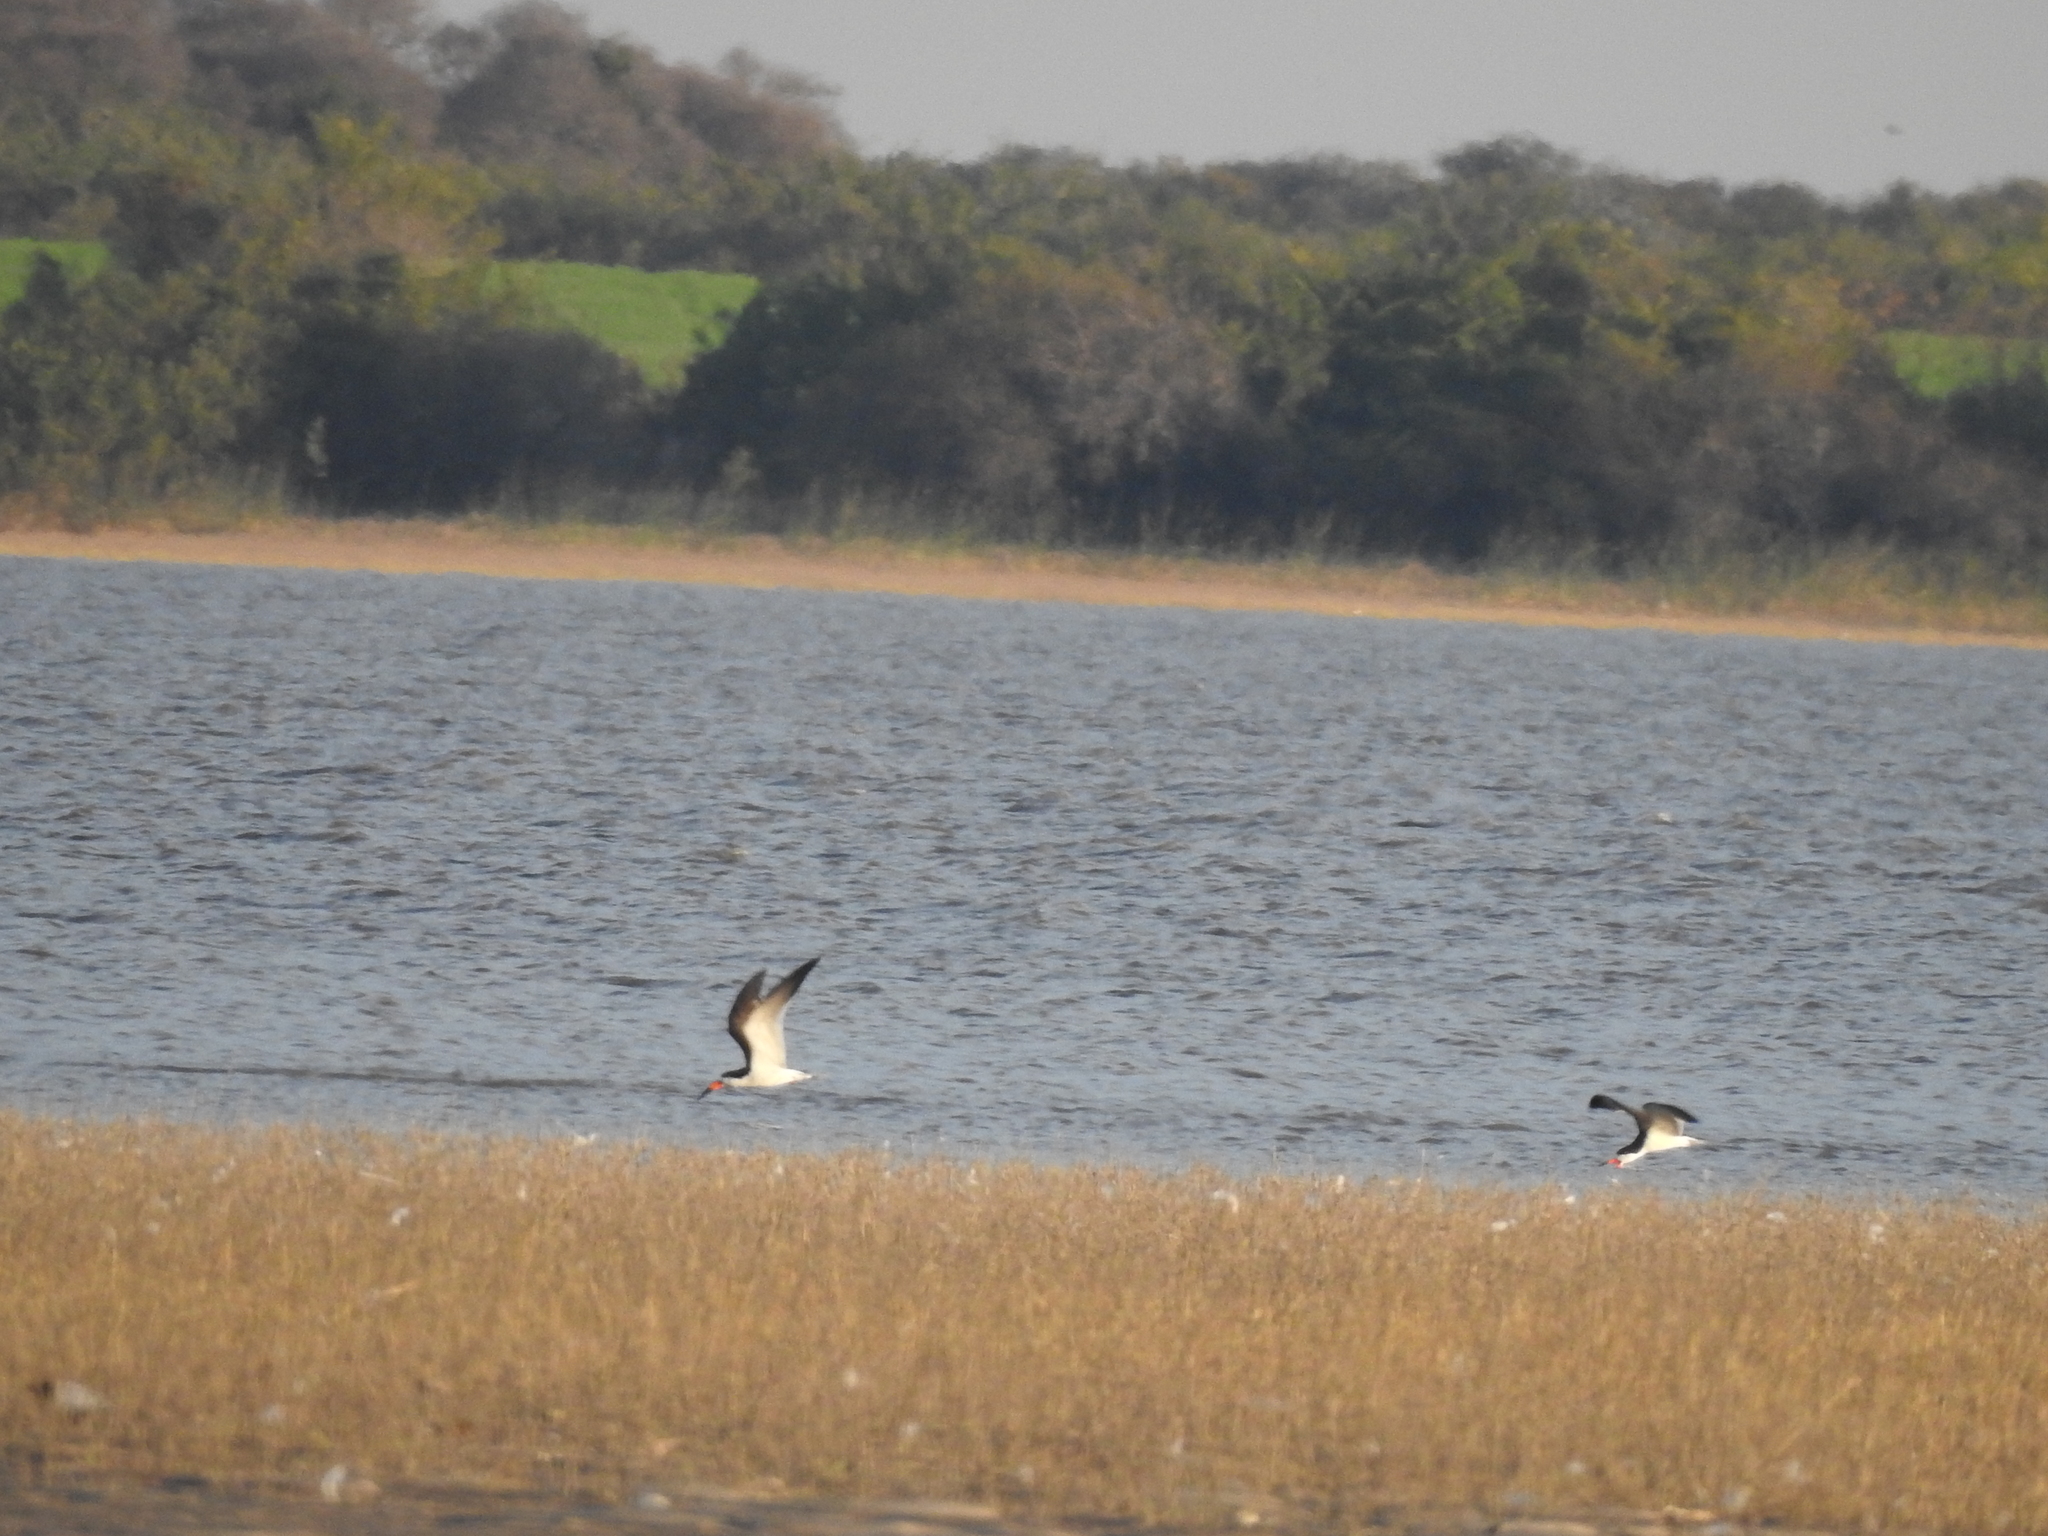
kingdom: Animalia
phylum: Chordata
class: Aves
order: Charadriiformes
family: Laridae
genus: Rynchops
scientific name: Rynchops niger
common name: Black skimmer
